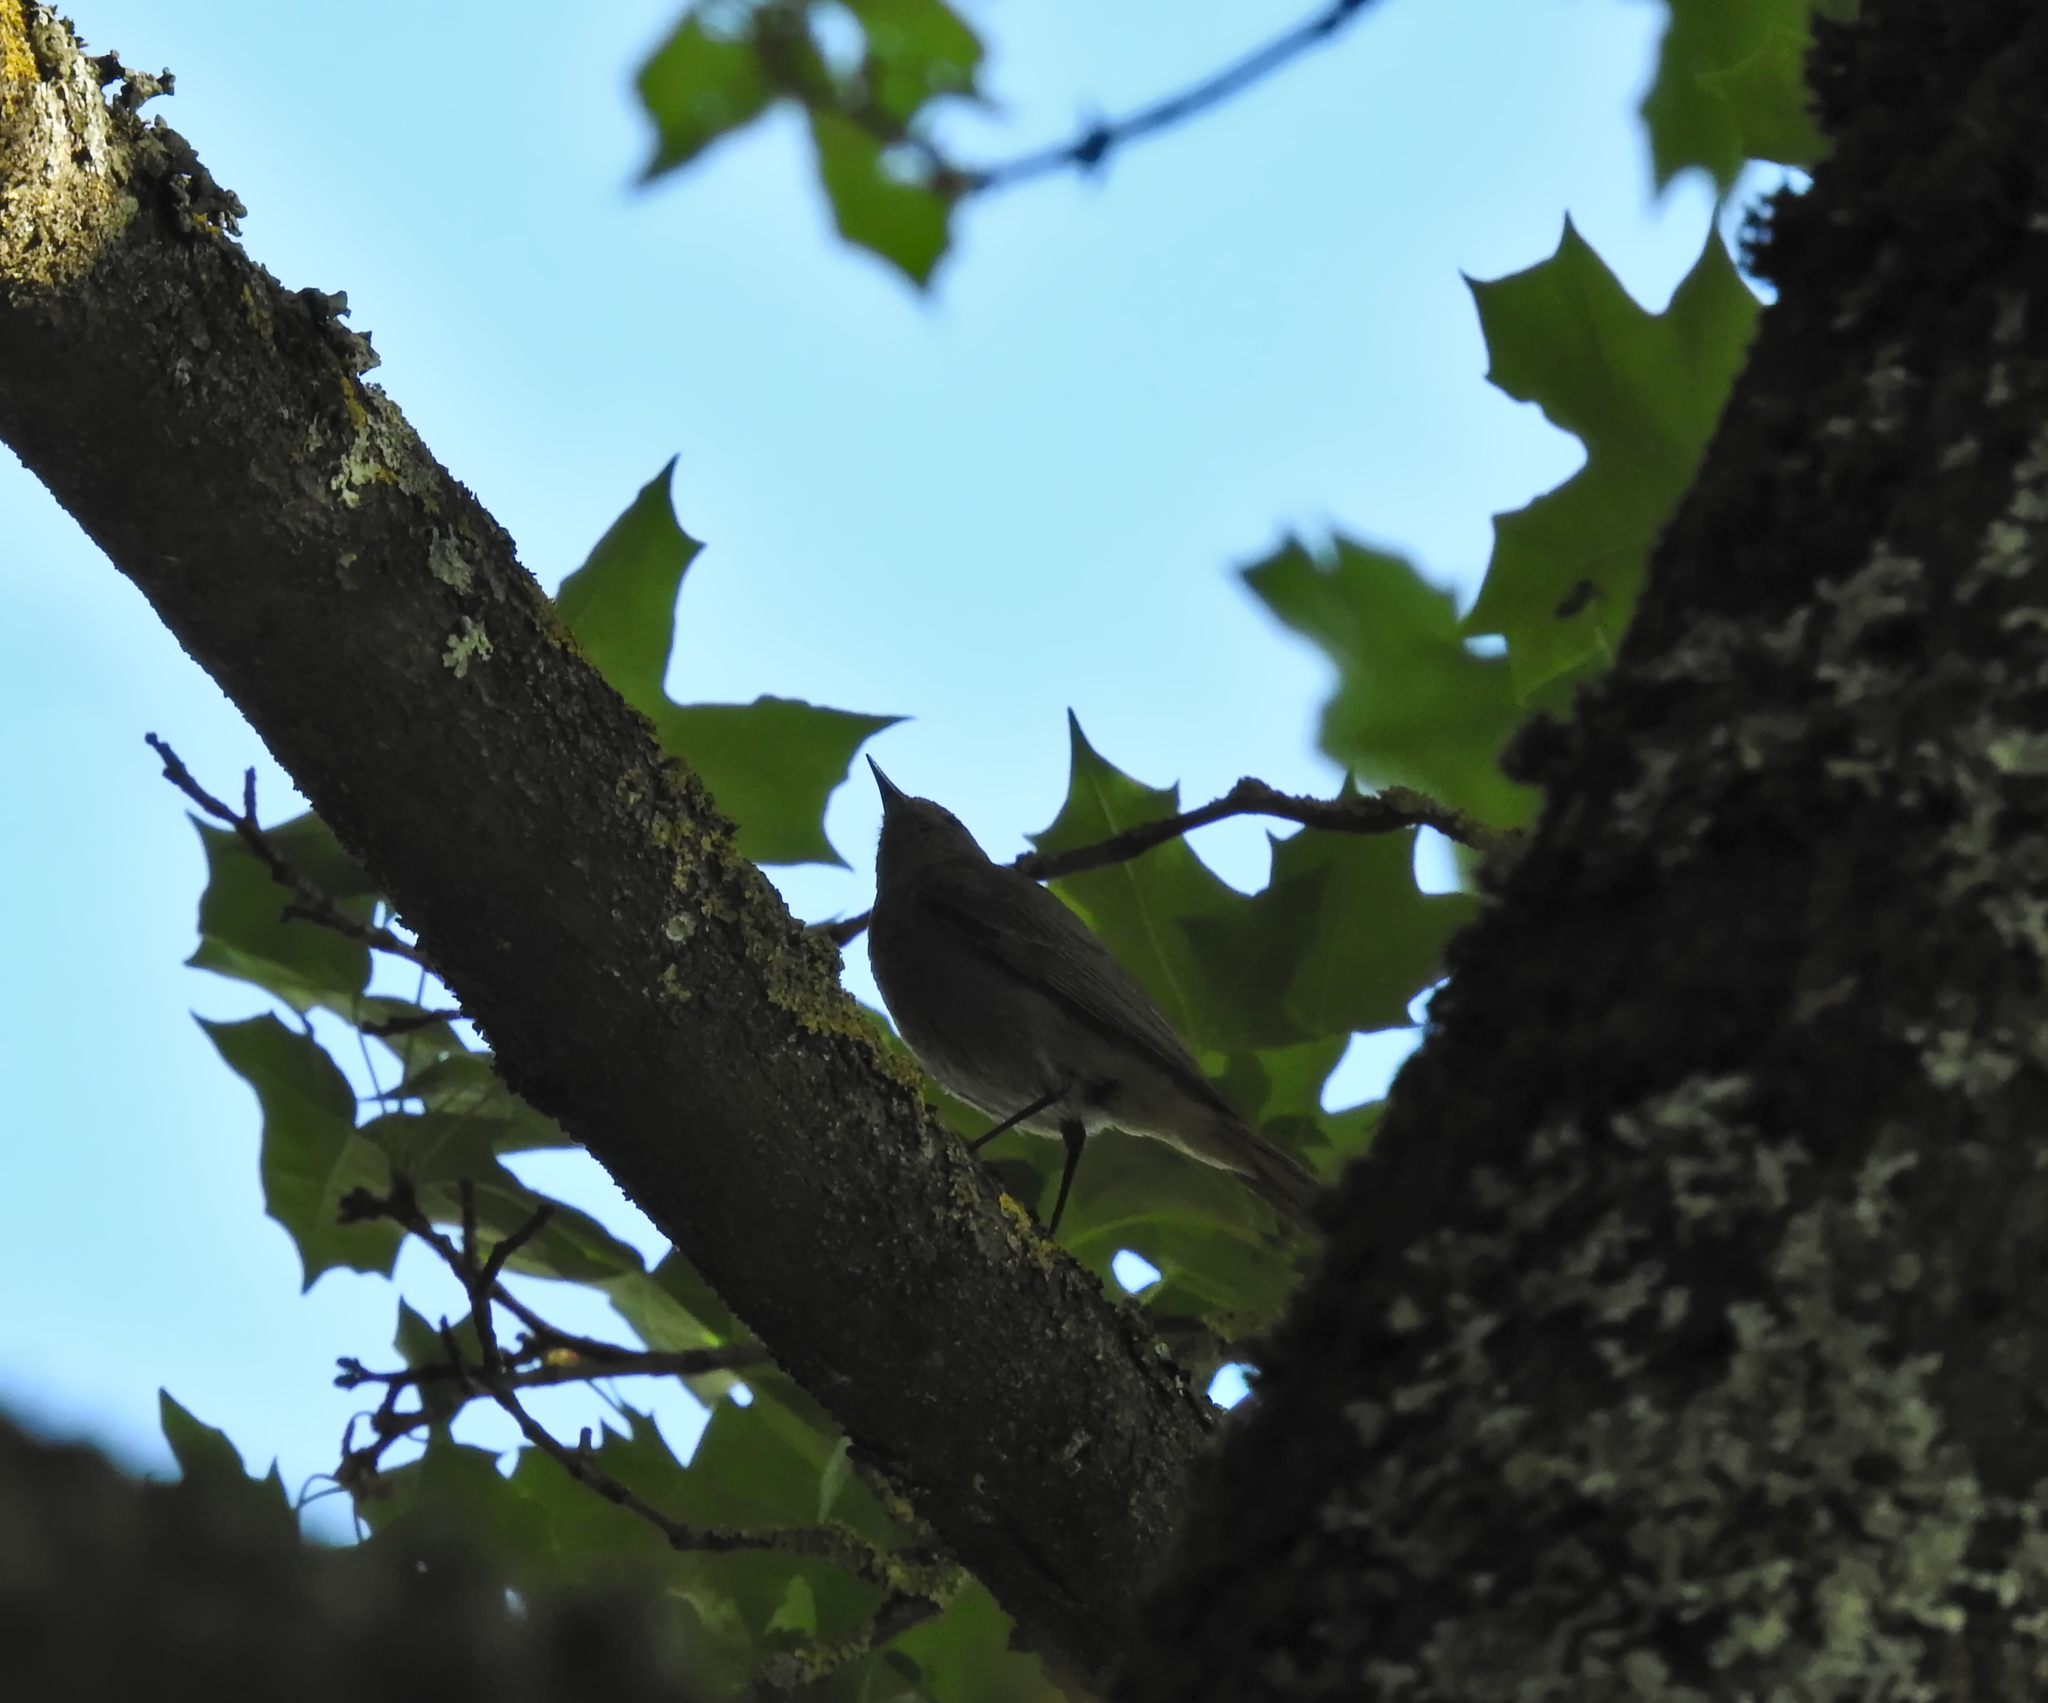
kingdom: Animalia
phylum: Chordata
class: Aves
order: Passeriformes
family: Phylloscopidae
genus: Phylloscopus
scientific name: Phylloscopus collybita
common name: Common chiffchaff
